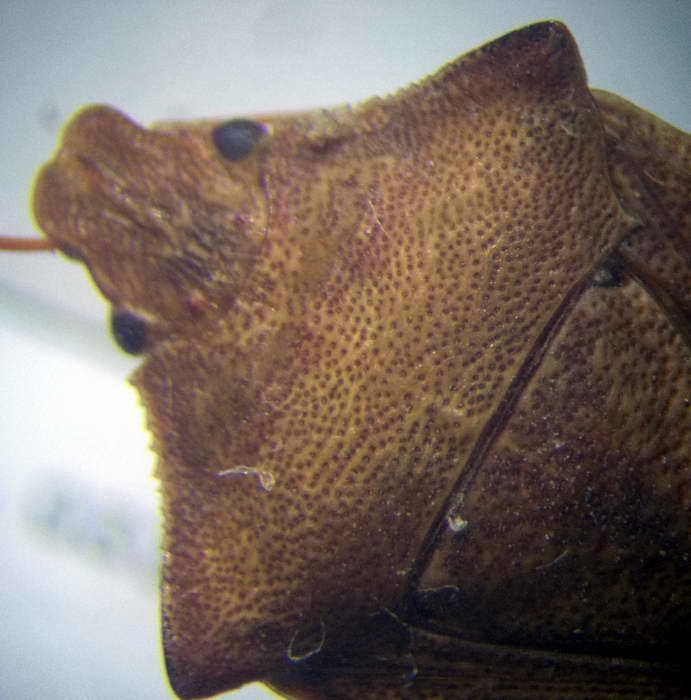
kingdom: Animalia
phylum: Arthropoda
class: Insecta
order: Hemiptera
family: Pentatomidae
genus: Arma
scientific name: Arma custos
